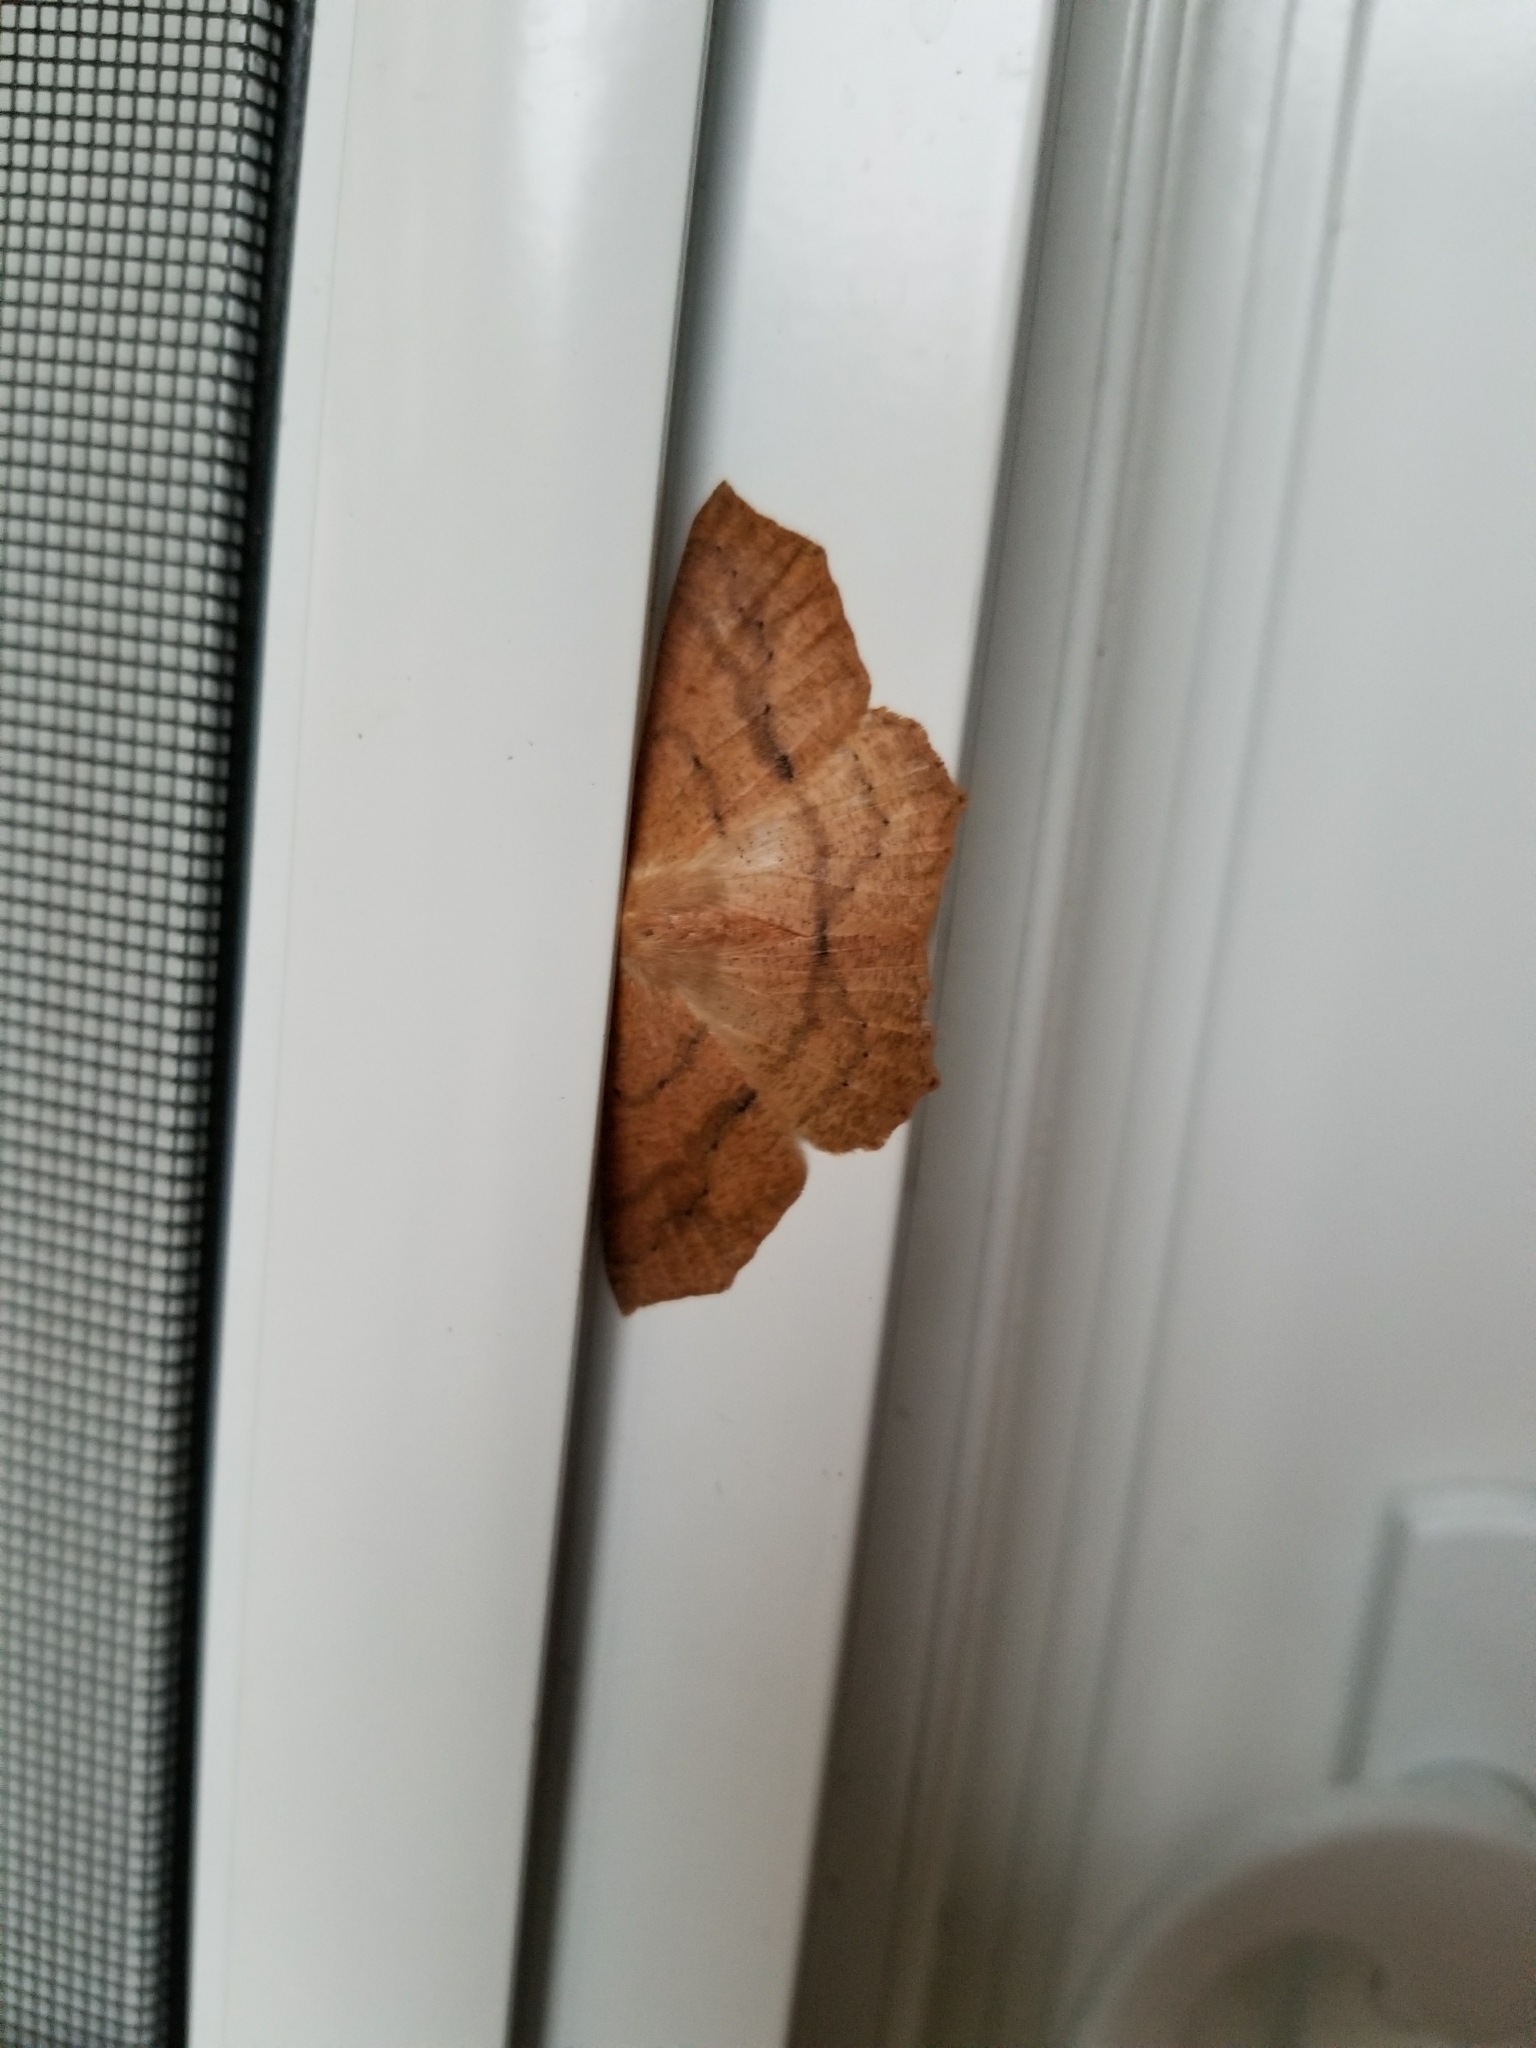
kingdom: Animalia
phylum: Arthropoda
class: Insecta
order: Lepidoptera
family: Geometridae
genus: Sabulodes
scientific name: Sabulodes aegrotata
